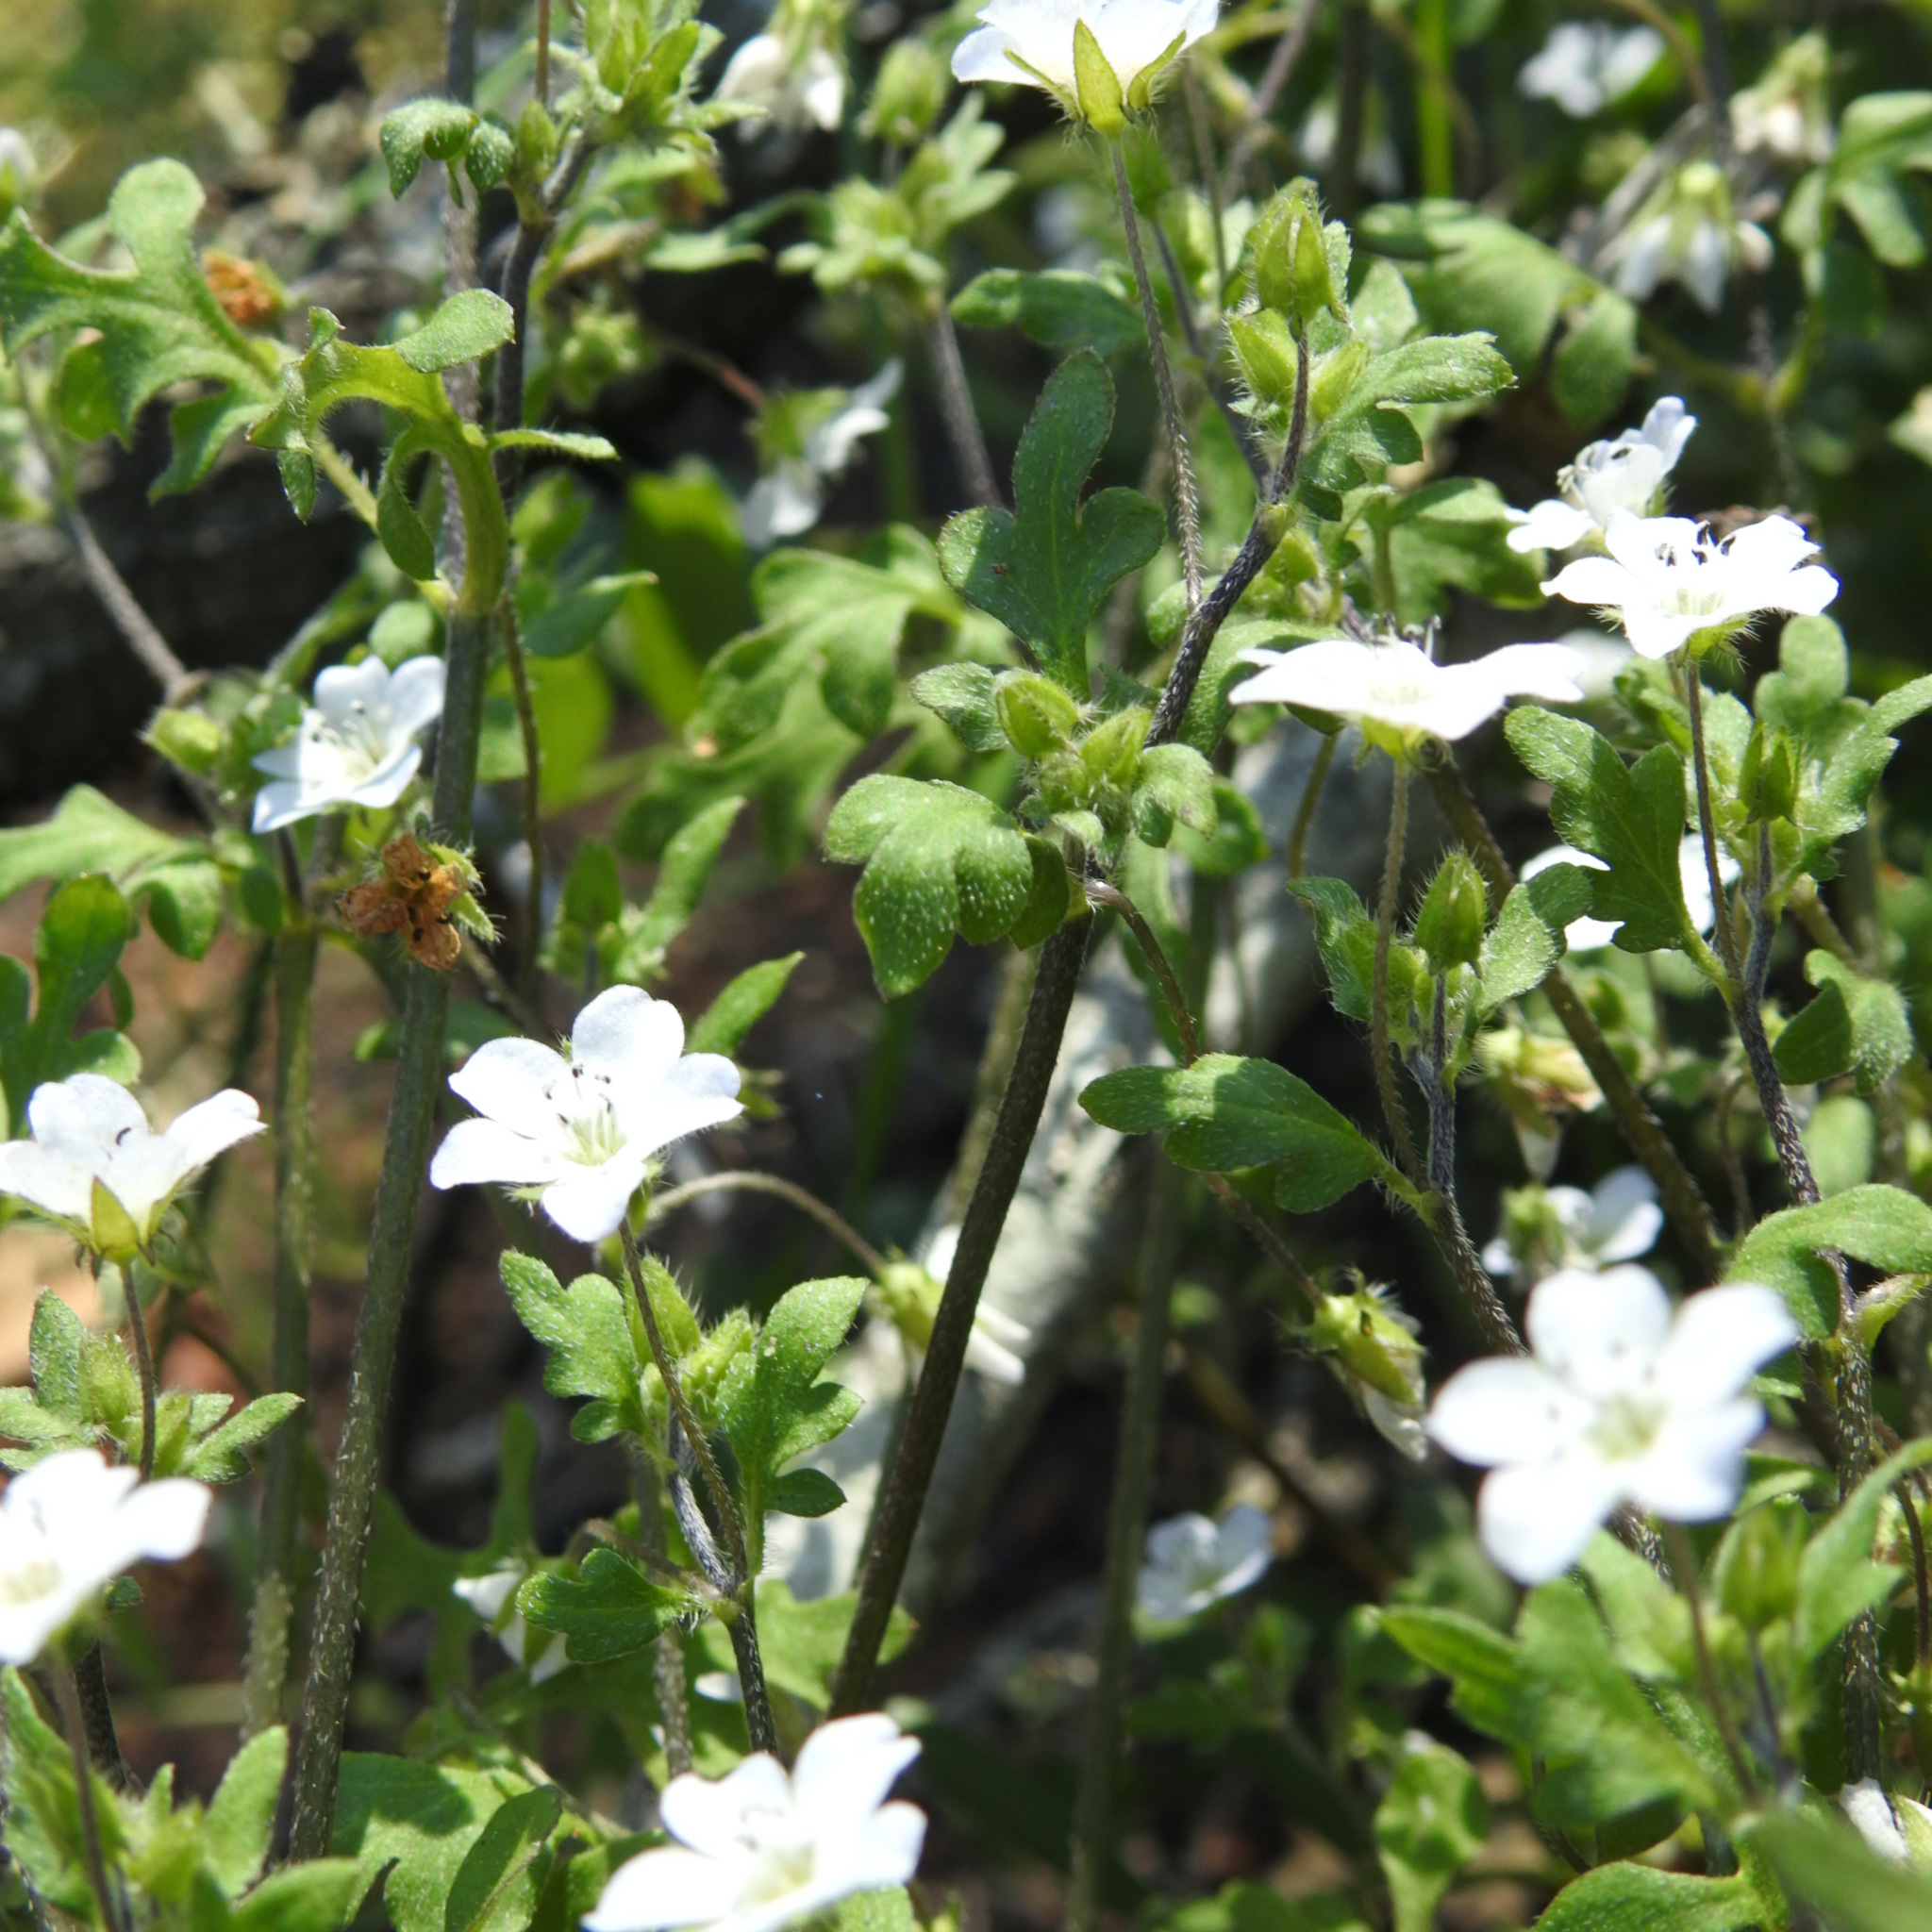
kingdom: Plantae
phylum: Tracheophyta
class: Magnoliopsida
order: Boraginales
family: Hydrophyllaceae
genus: Nemophila
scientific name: Nemophila heterophylla
